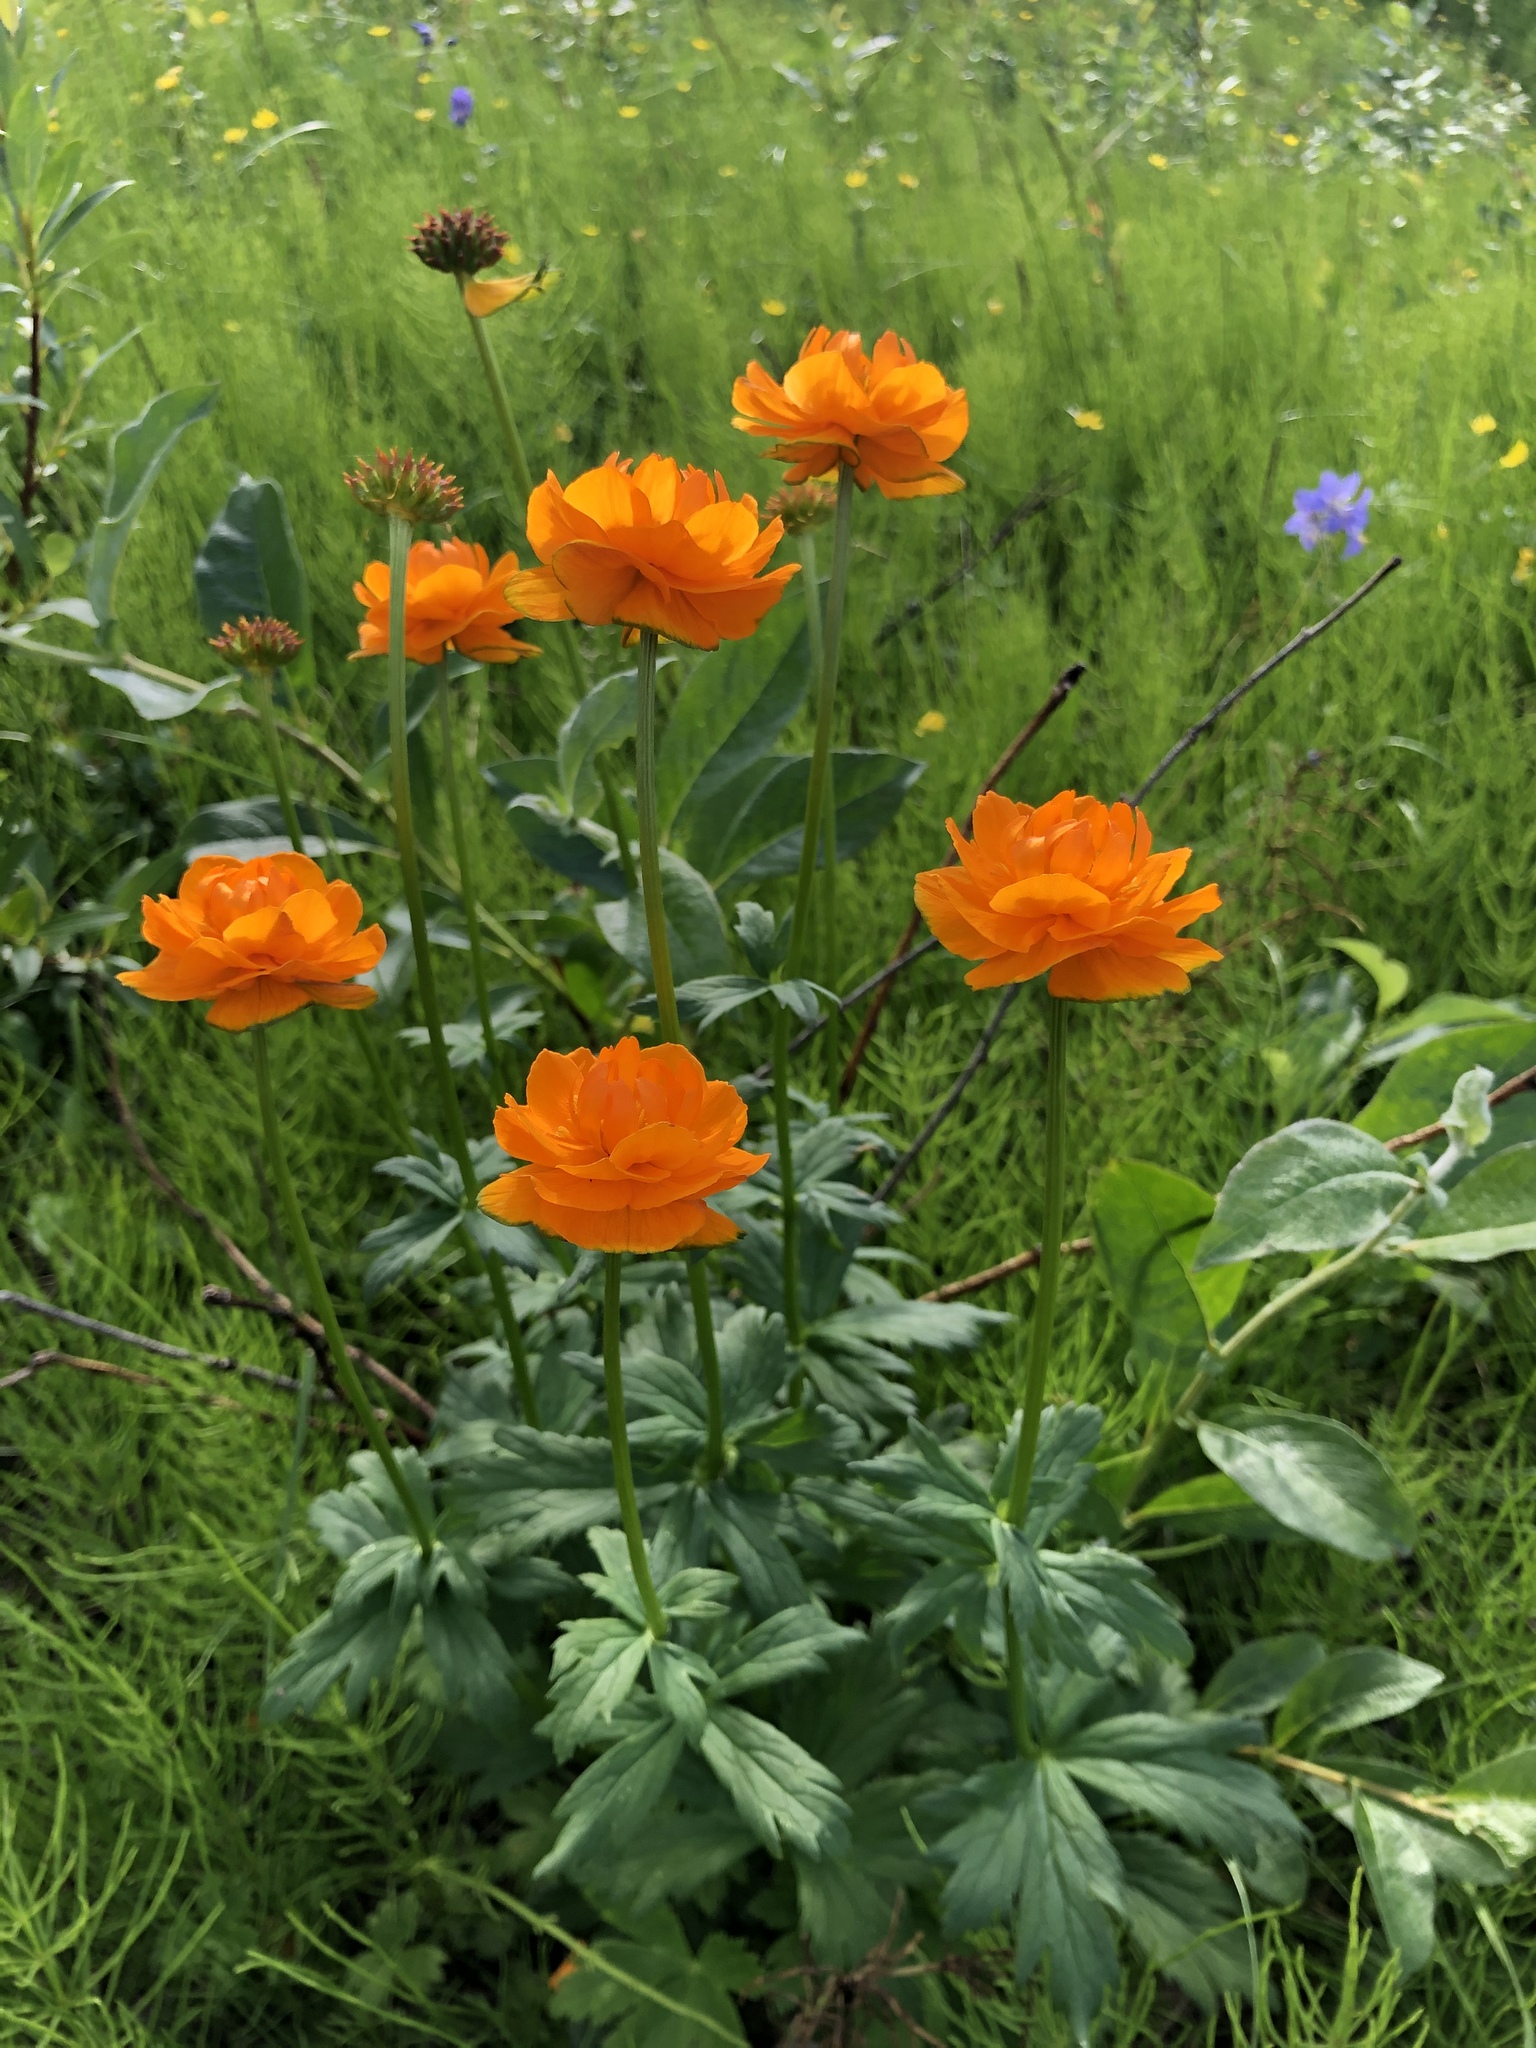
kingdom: Plantae
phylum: Tracheophyta
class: Magnoliopsida
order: Ranunculales
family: Ranunculaceae
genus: Trollius
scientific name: Trollius asiaticus
